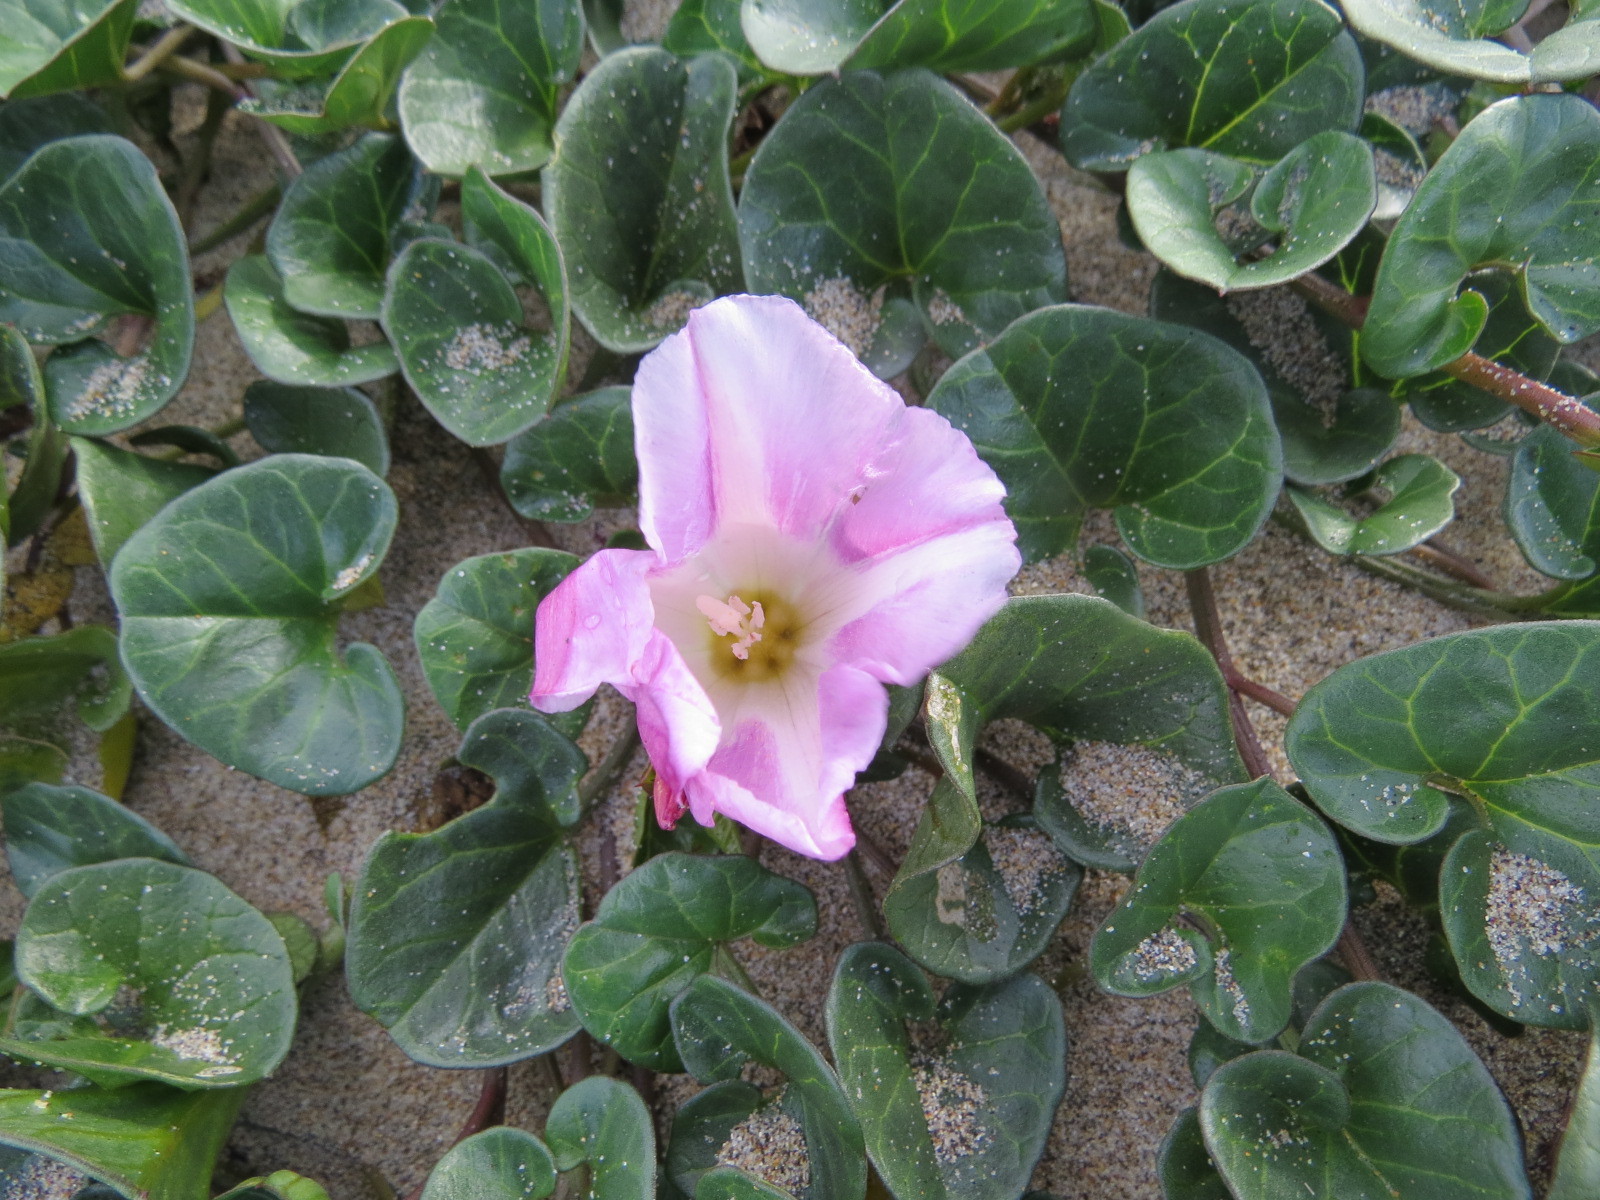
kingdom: Plantae
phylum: Tracheophyta
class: Magnoliopsida
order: Solanales
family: Convolvulaceae
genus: Calystegia
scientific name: Calystegia soldanella
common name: Sea bindweed
